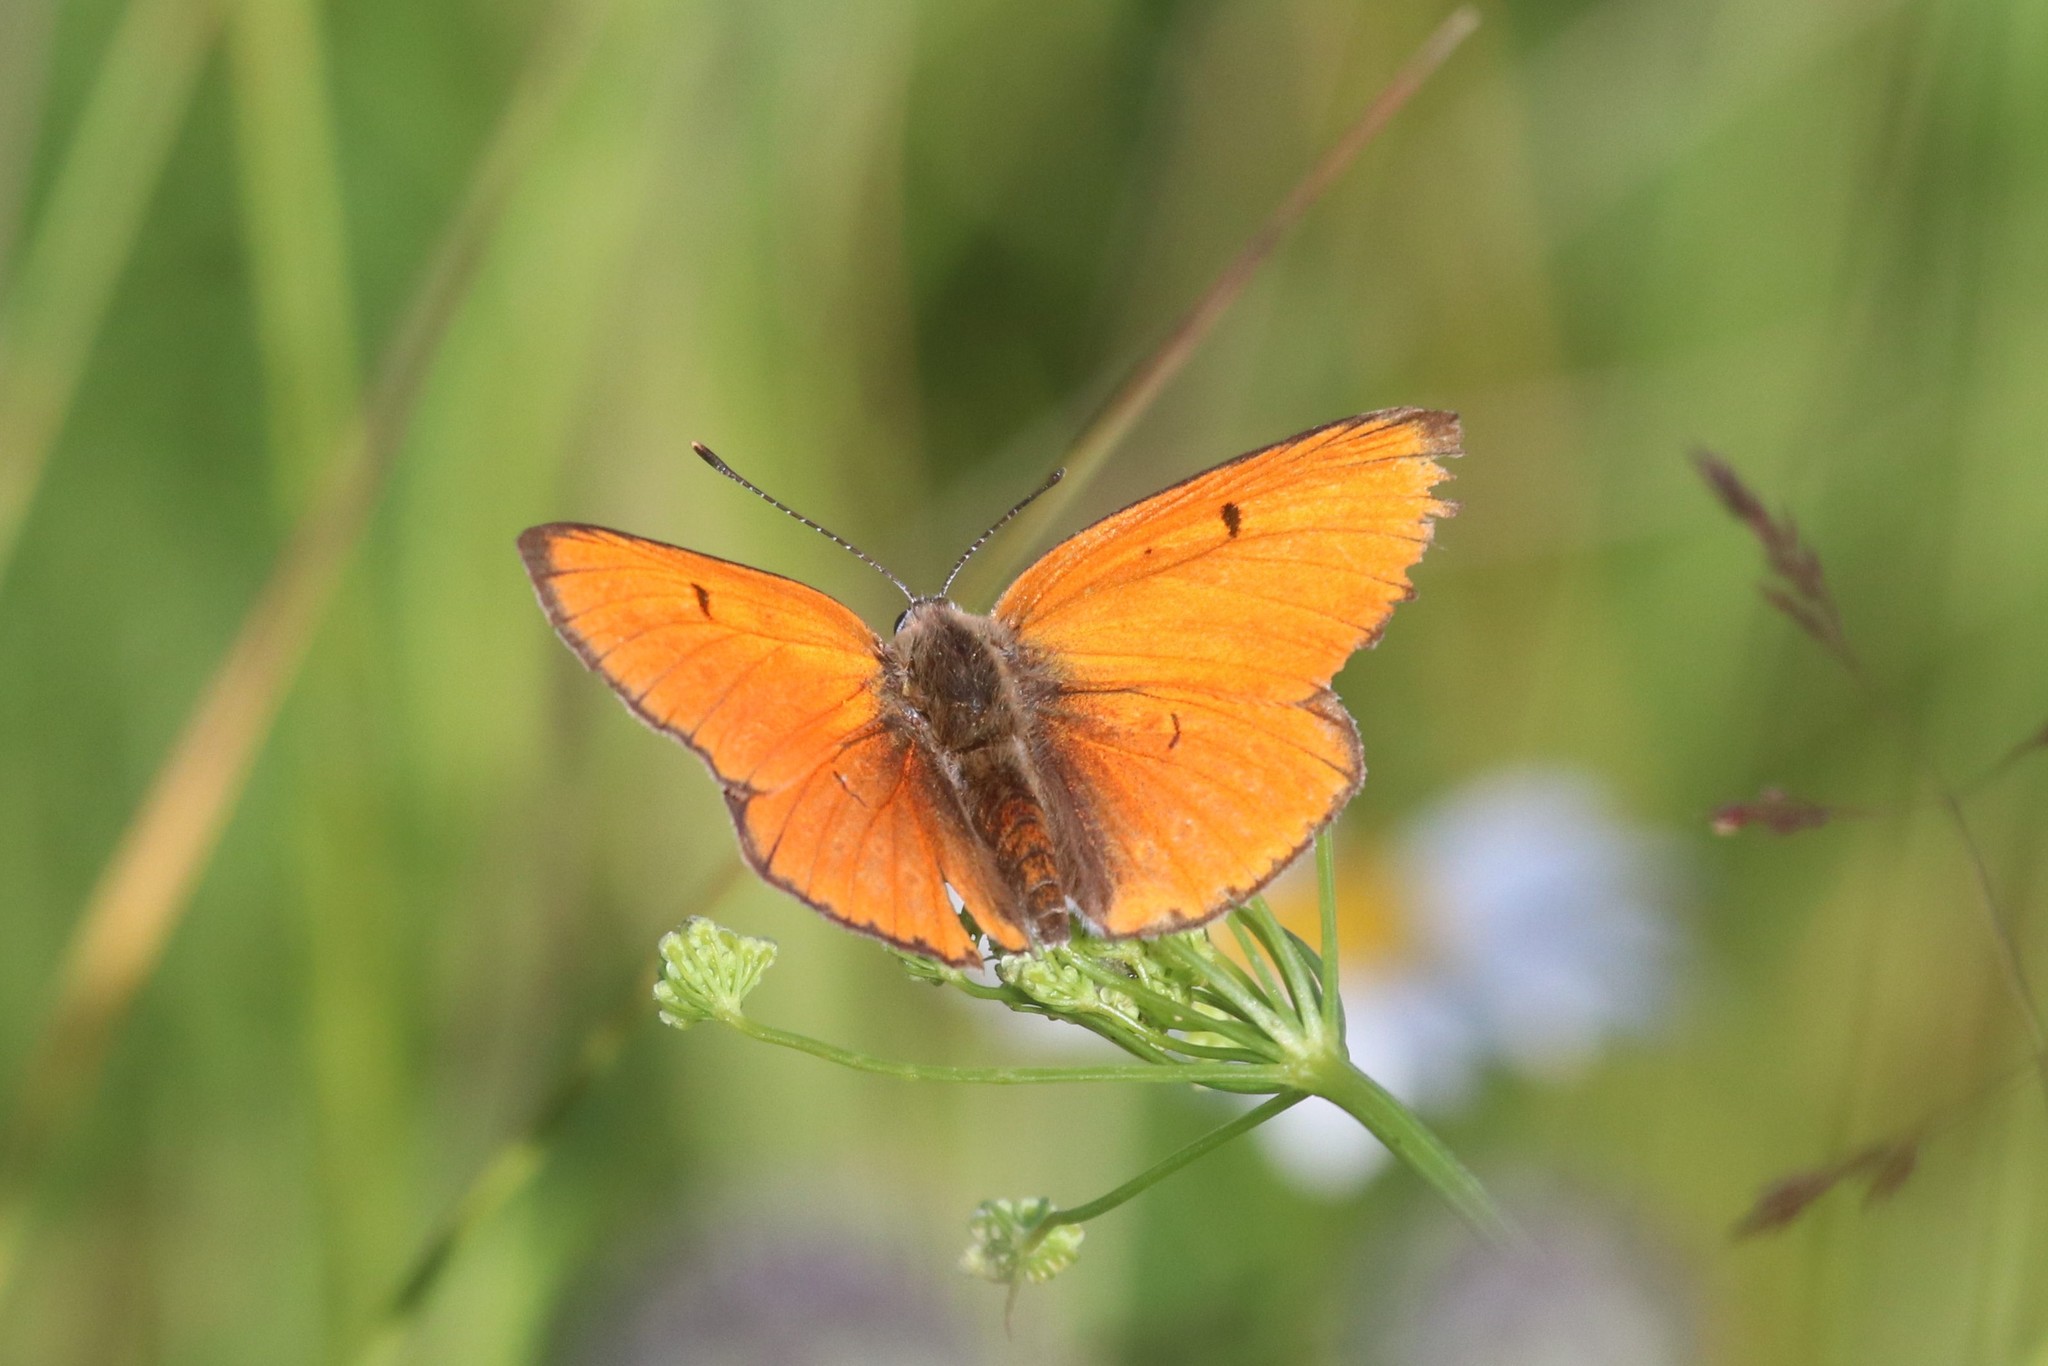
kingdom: Animalia
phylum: Arthropoda
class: Insecta
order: Lepidoptera
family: Lycaenidae
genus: Lycaena
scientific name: Lycaena dispar
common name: Large copper
